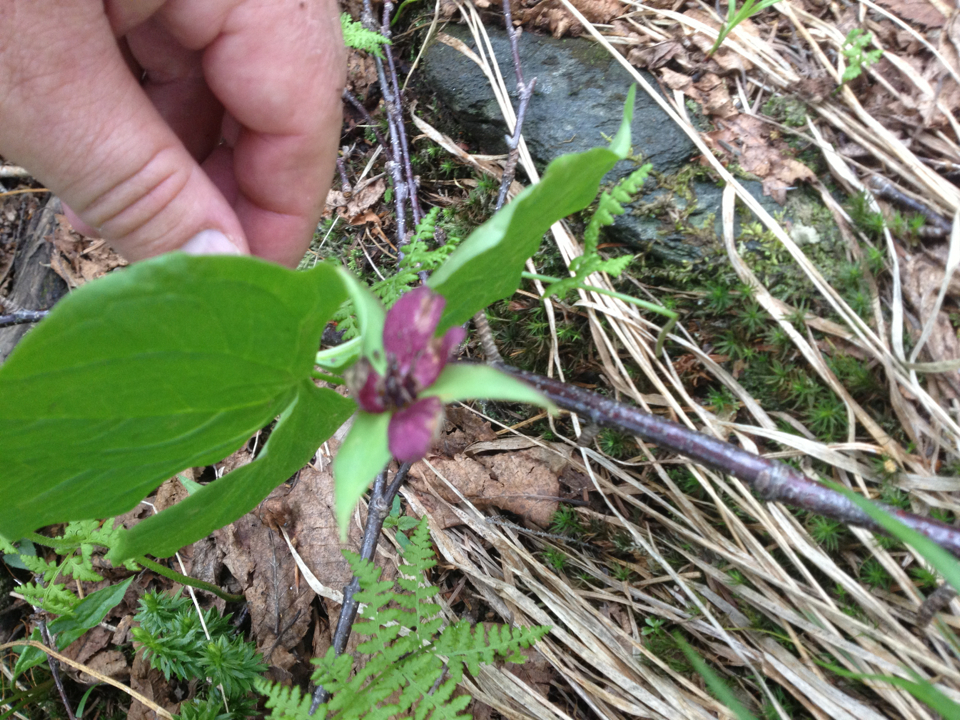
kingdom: Plantae
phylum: Tracheophyta
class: Liliopsida
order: Liliales
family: Melanthiaceae
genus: Trillium
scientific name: Trillium erectum
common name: Purple trillium
